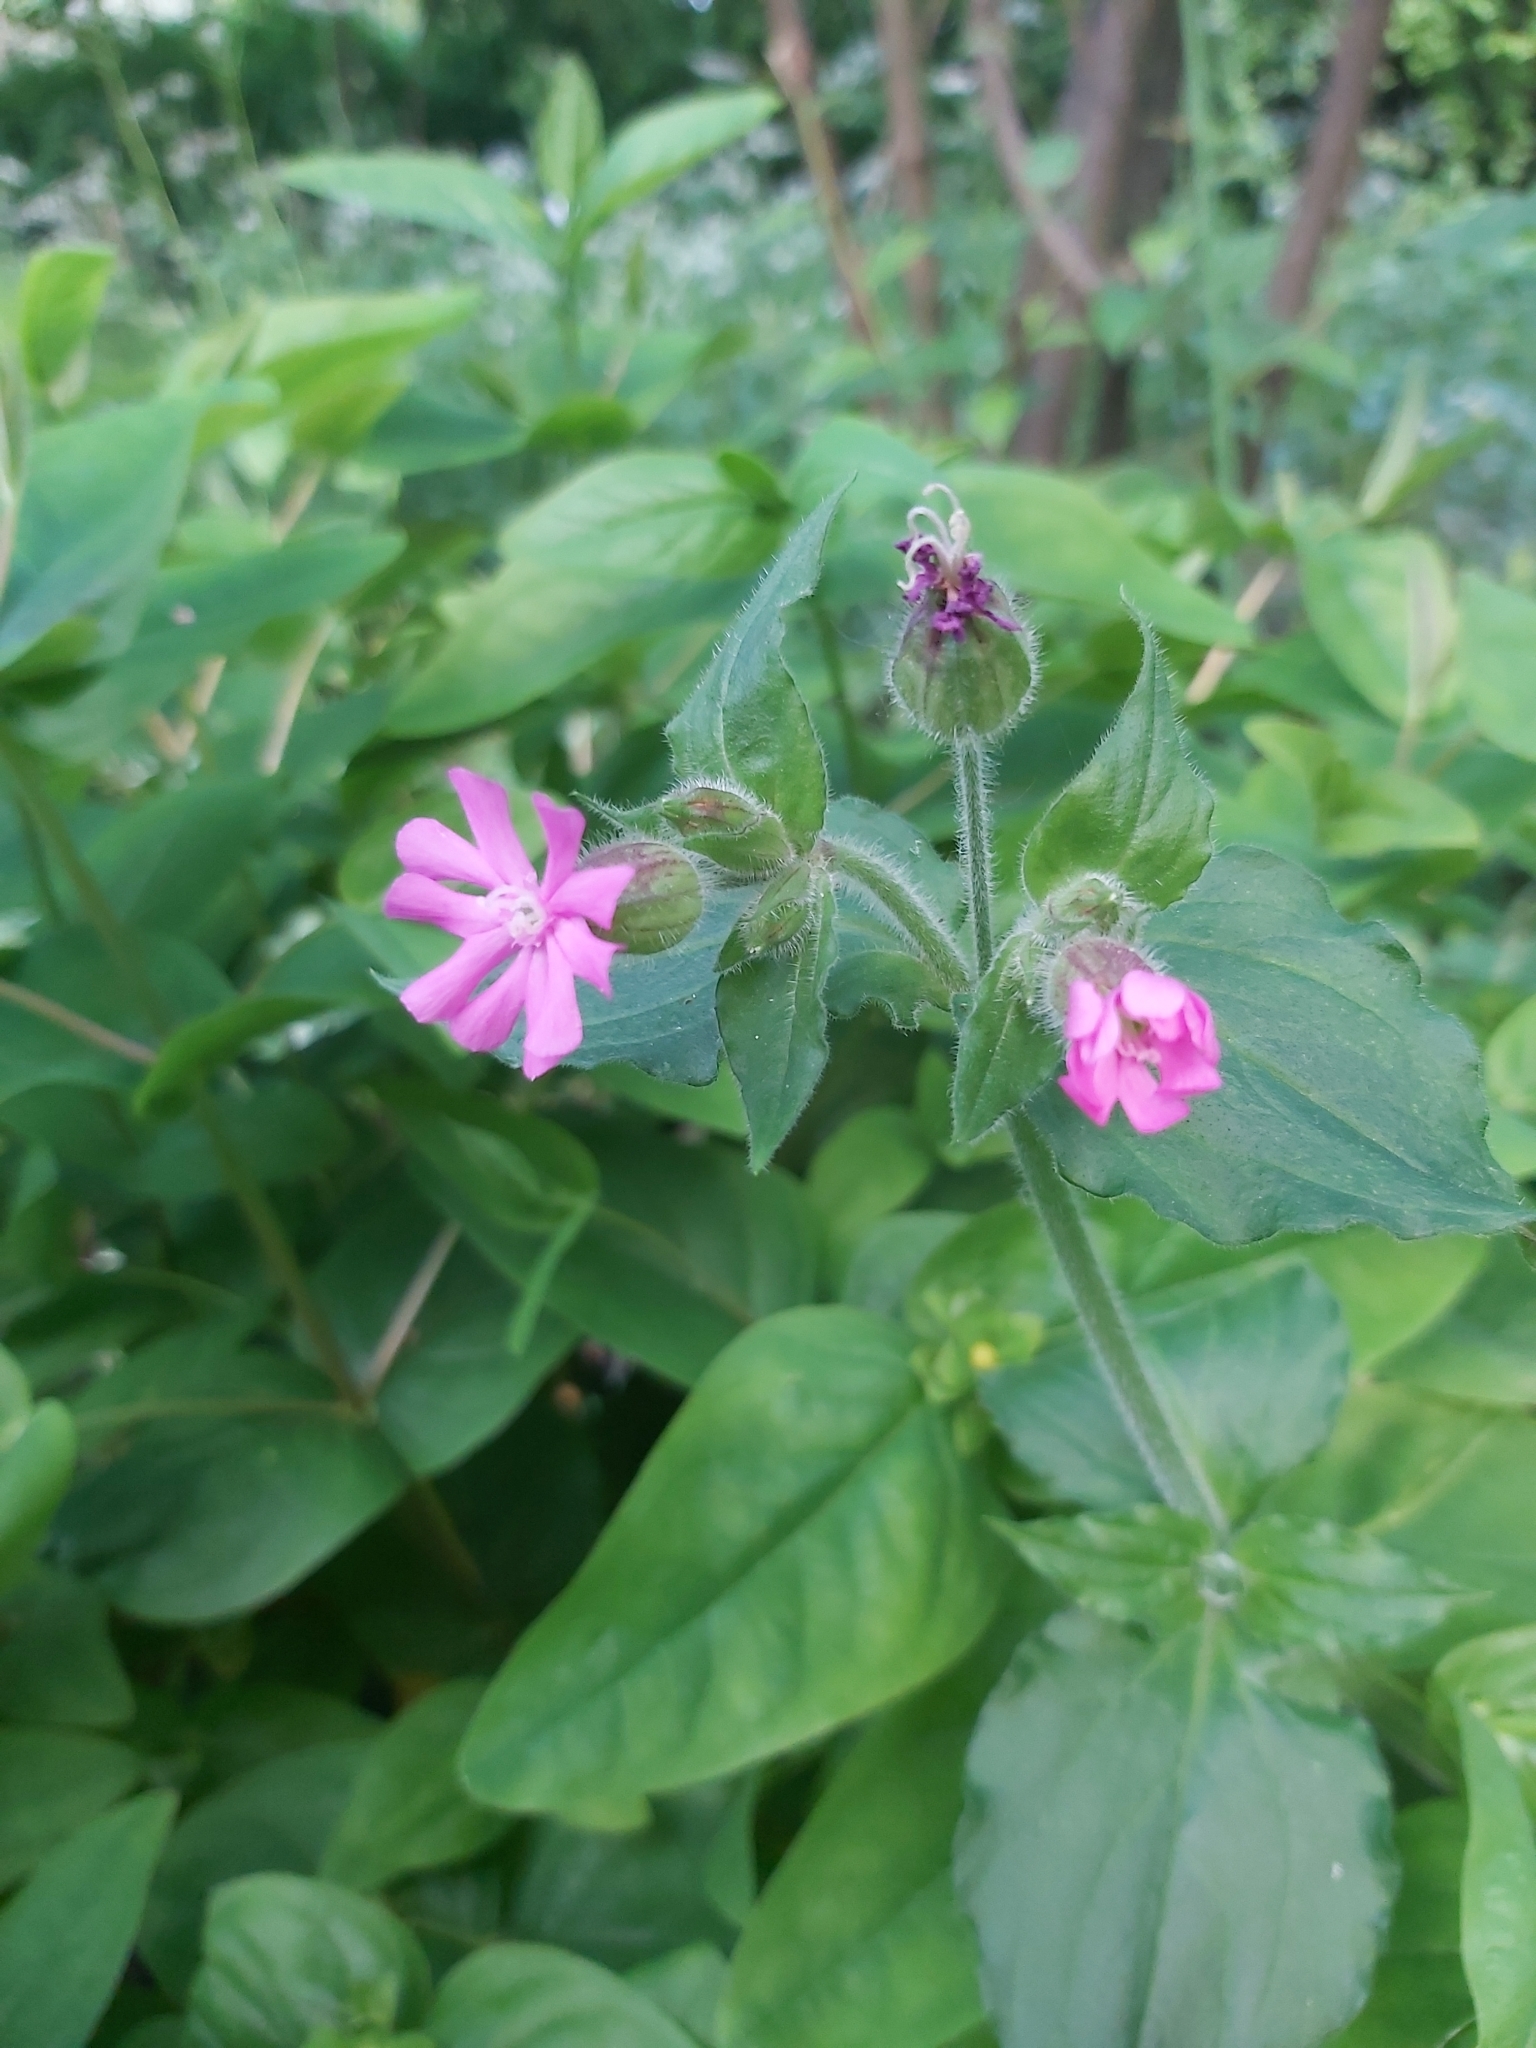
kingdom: Plantae
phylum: Tracheophyta
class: Magnoliopsida
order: Caryophyllales
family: Caryophyllaceae
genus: Silene
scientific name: Silene dioica
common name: Red campion
